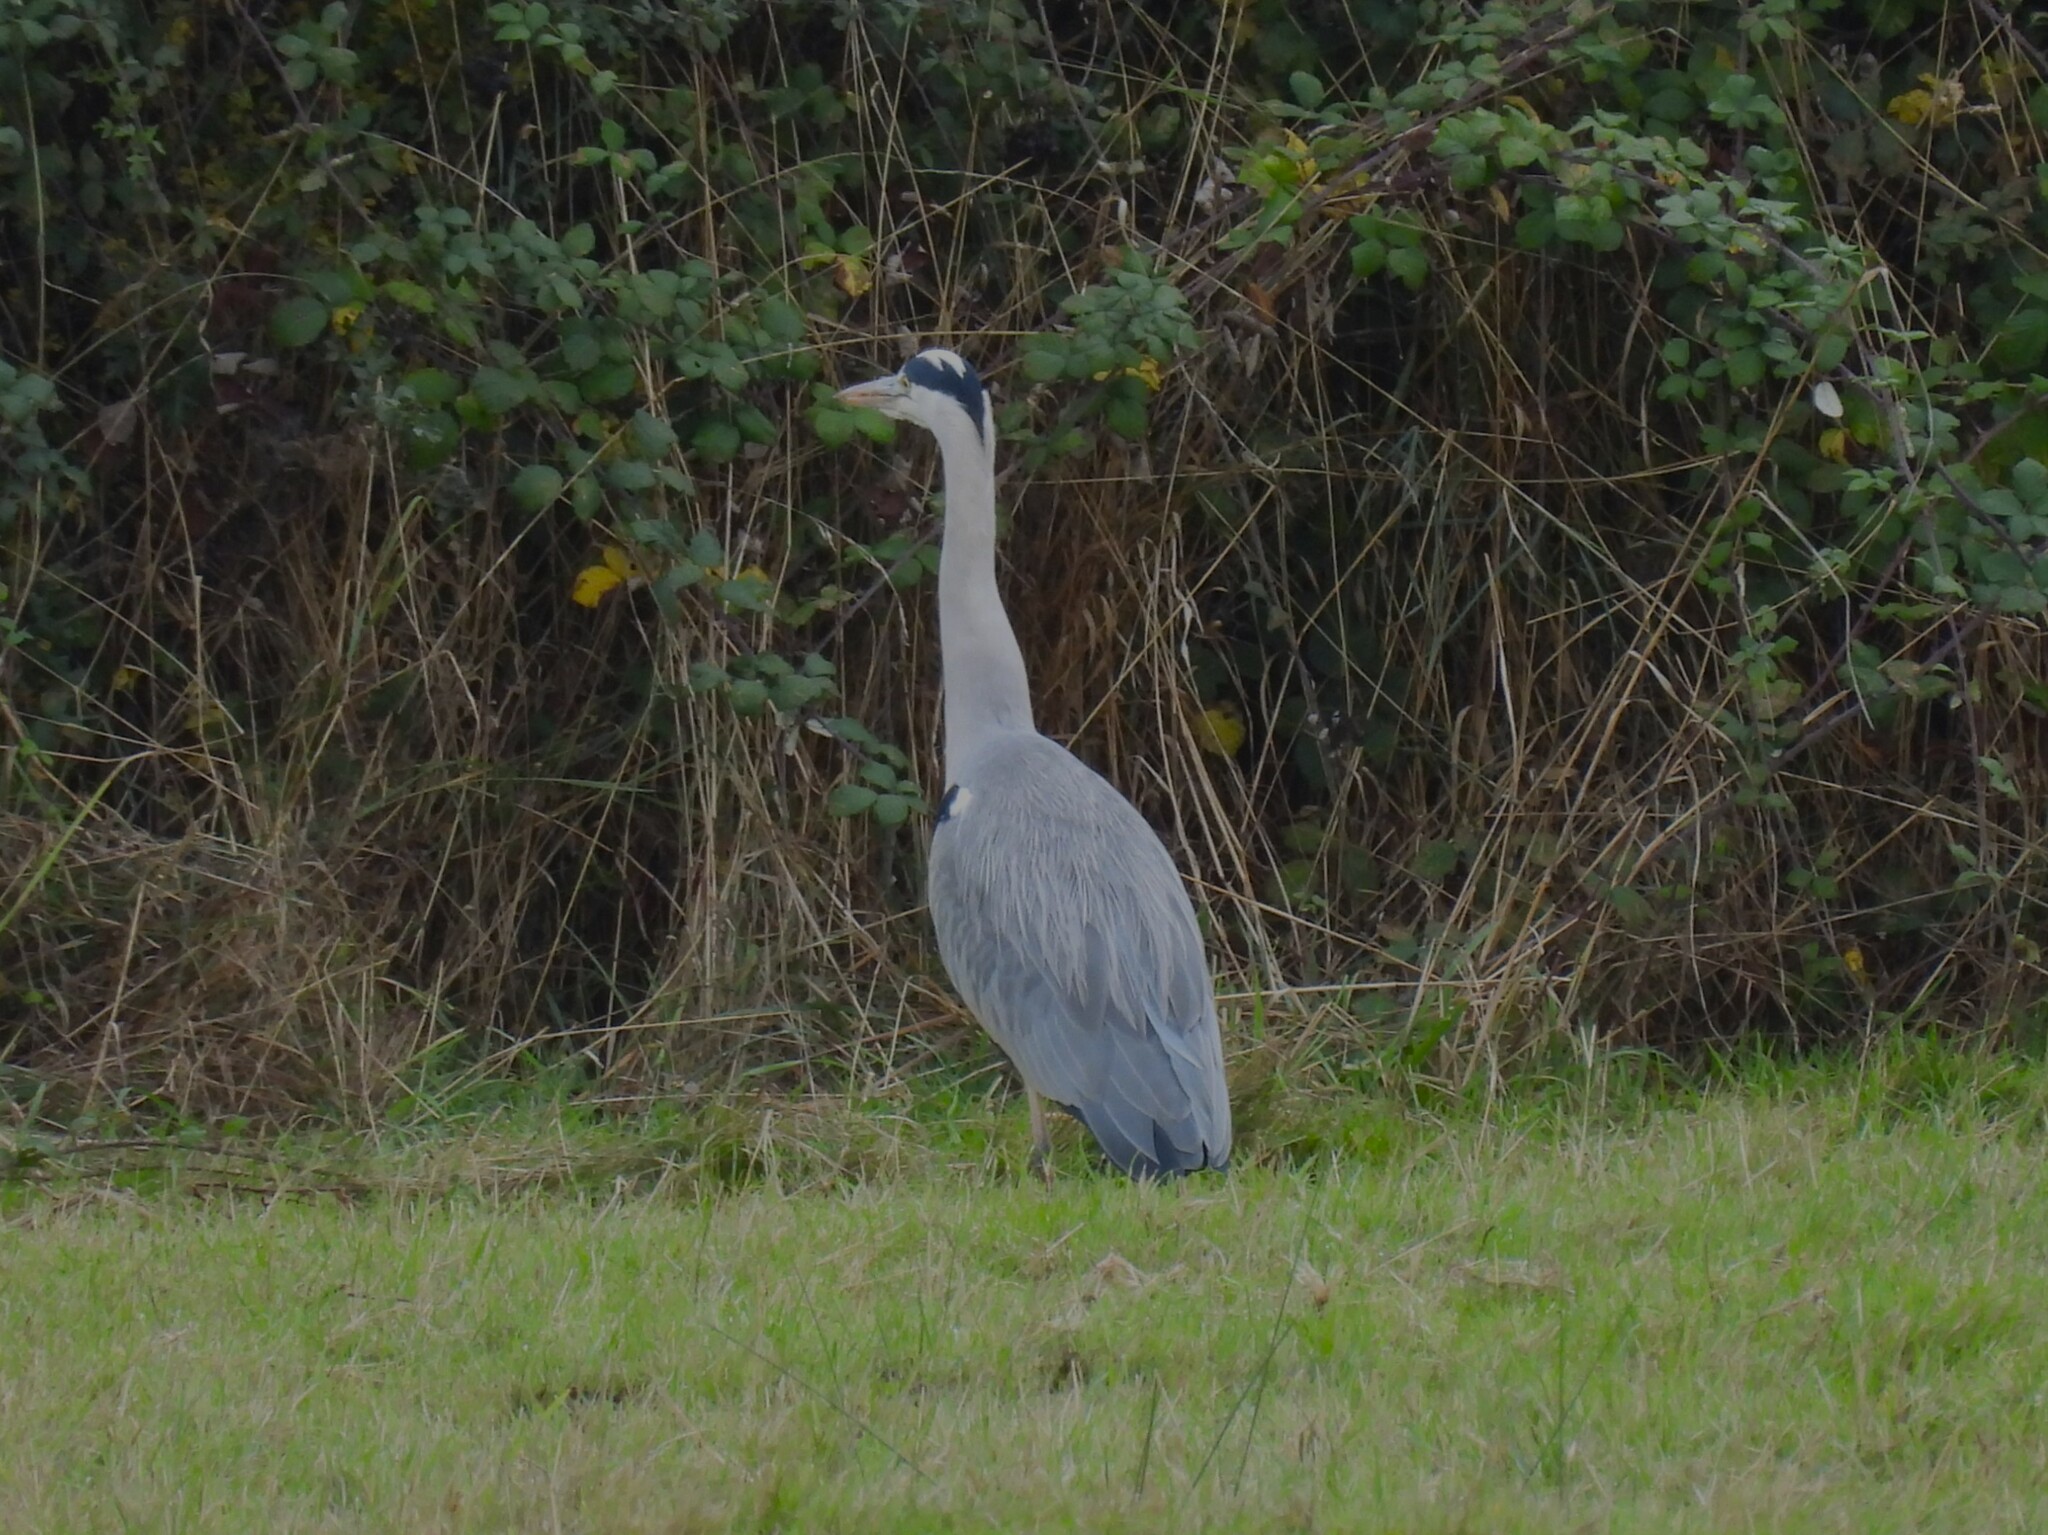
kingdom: Animalia
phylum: Chordata
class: Aves
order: Pelecaniformes
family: Ardeidae
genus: Ardea
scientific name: Ardea cinerea
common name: Grey heron
